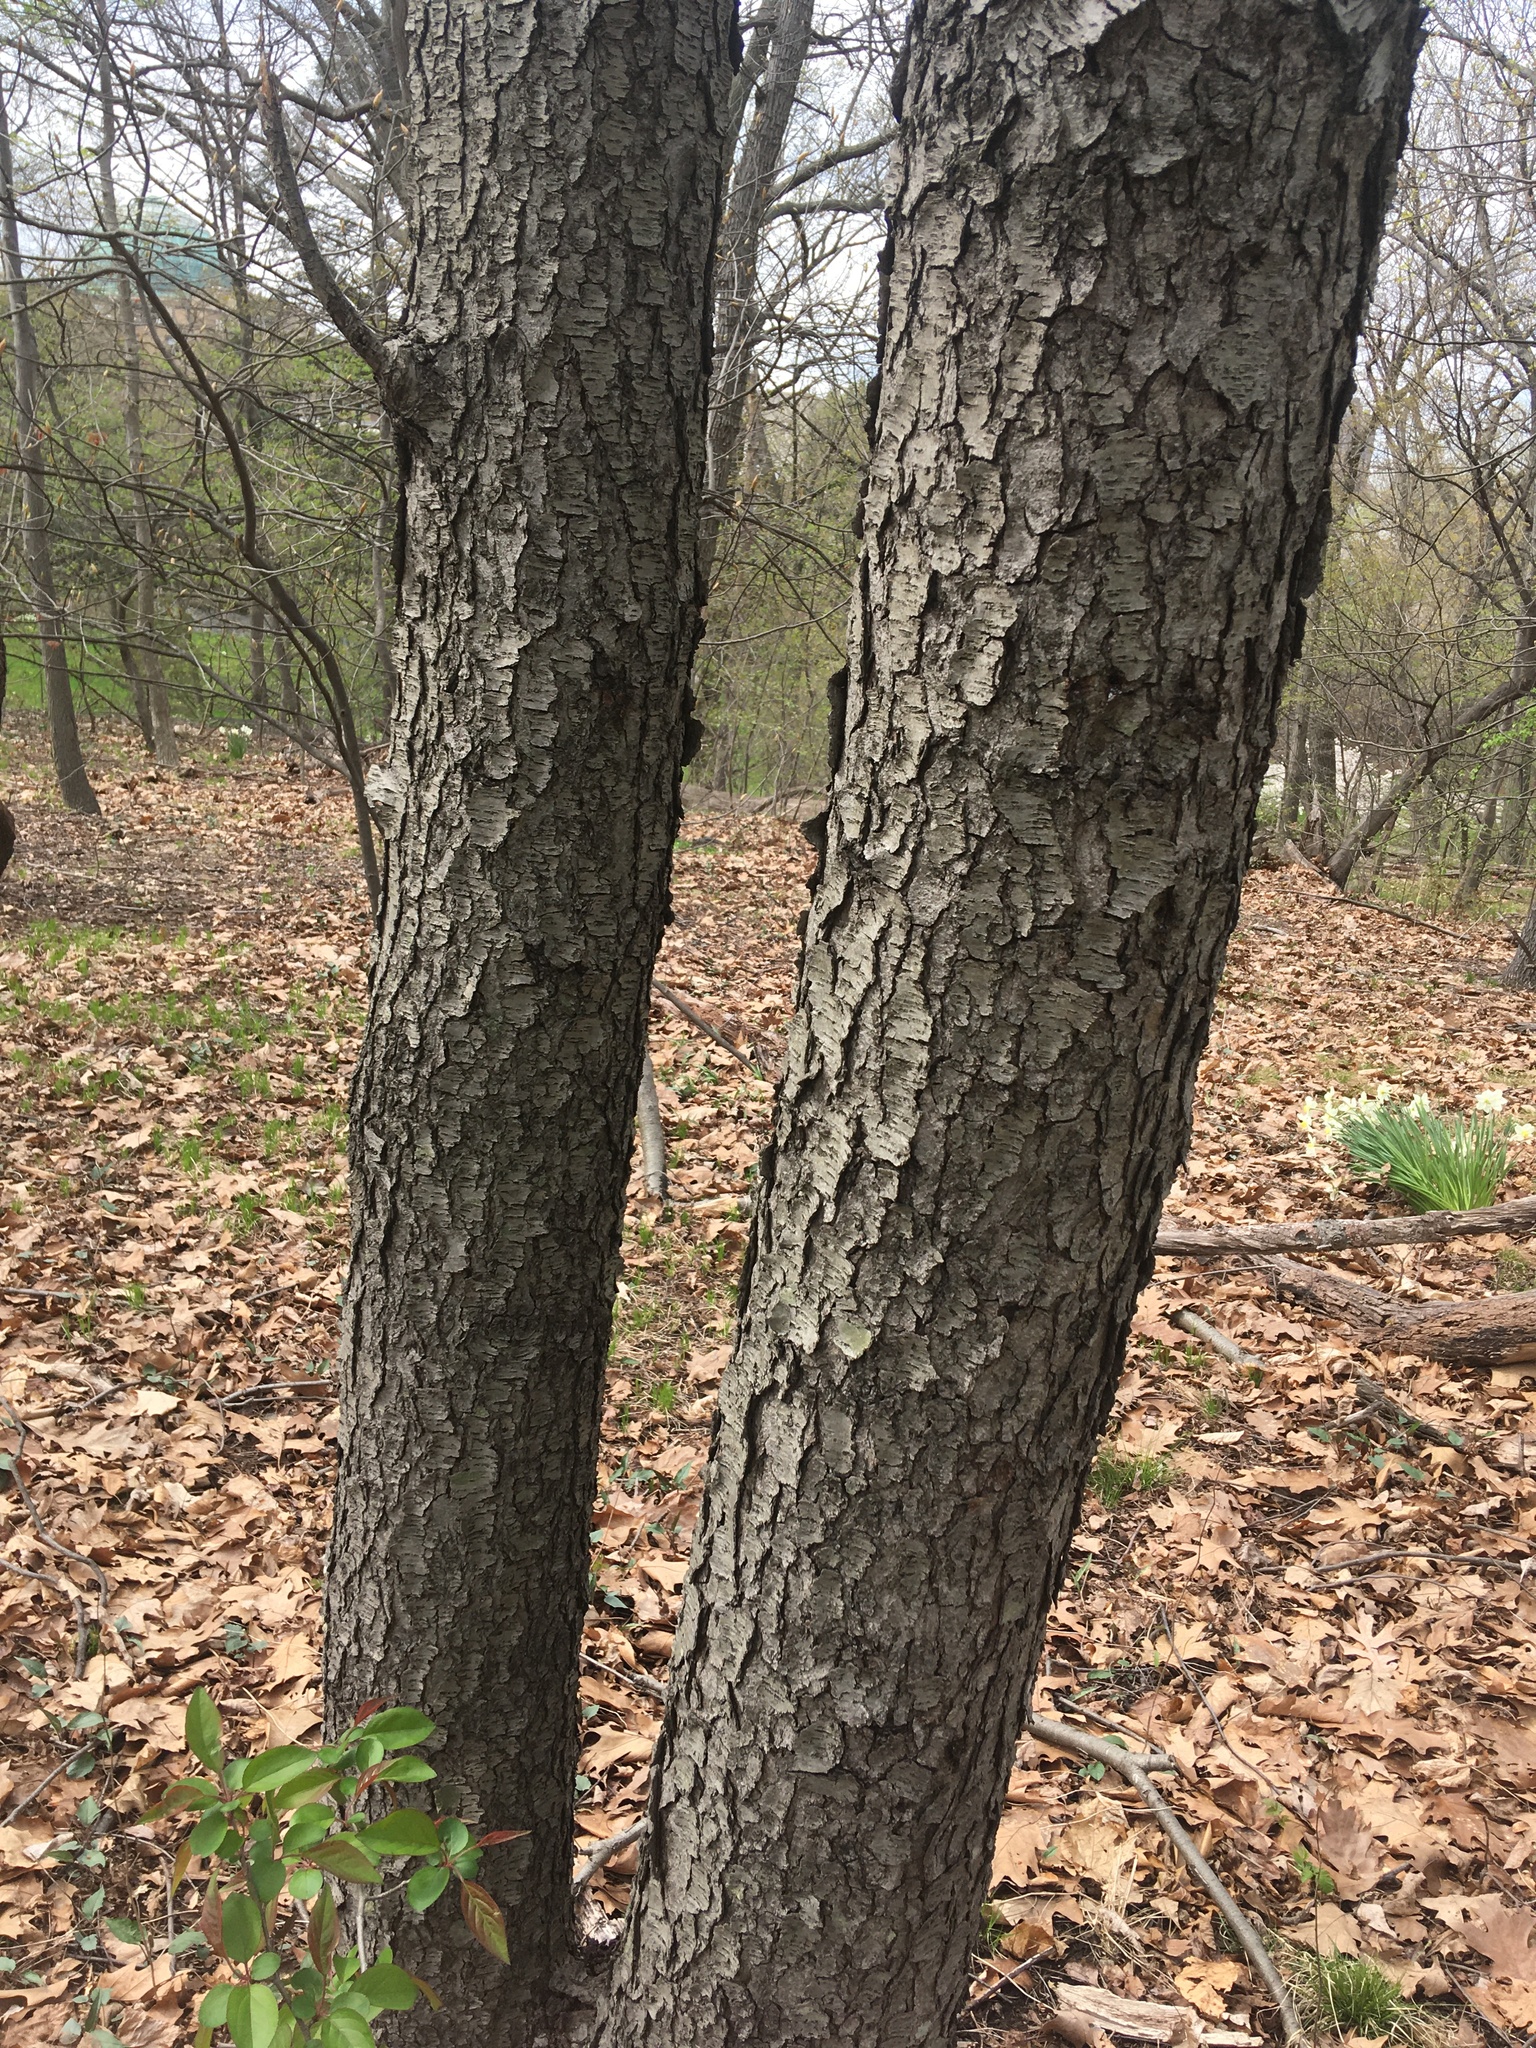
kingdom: Plantae
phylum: Tracheophyta
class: Magnoliopsida
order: Rosales
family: Rosaceae
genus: Prunus
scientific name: Prunus serotina
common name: Black cherry
